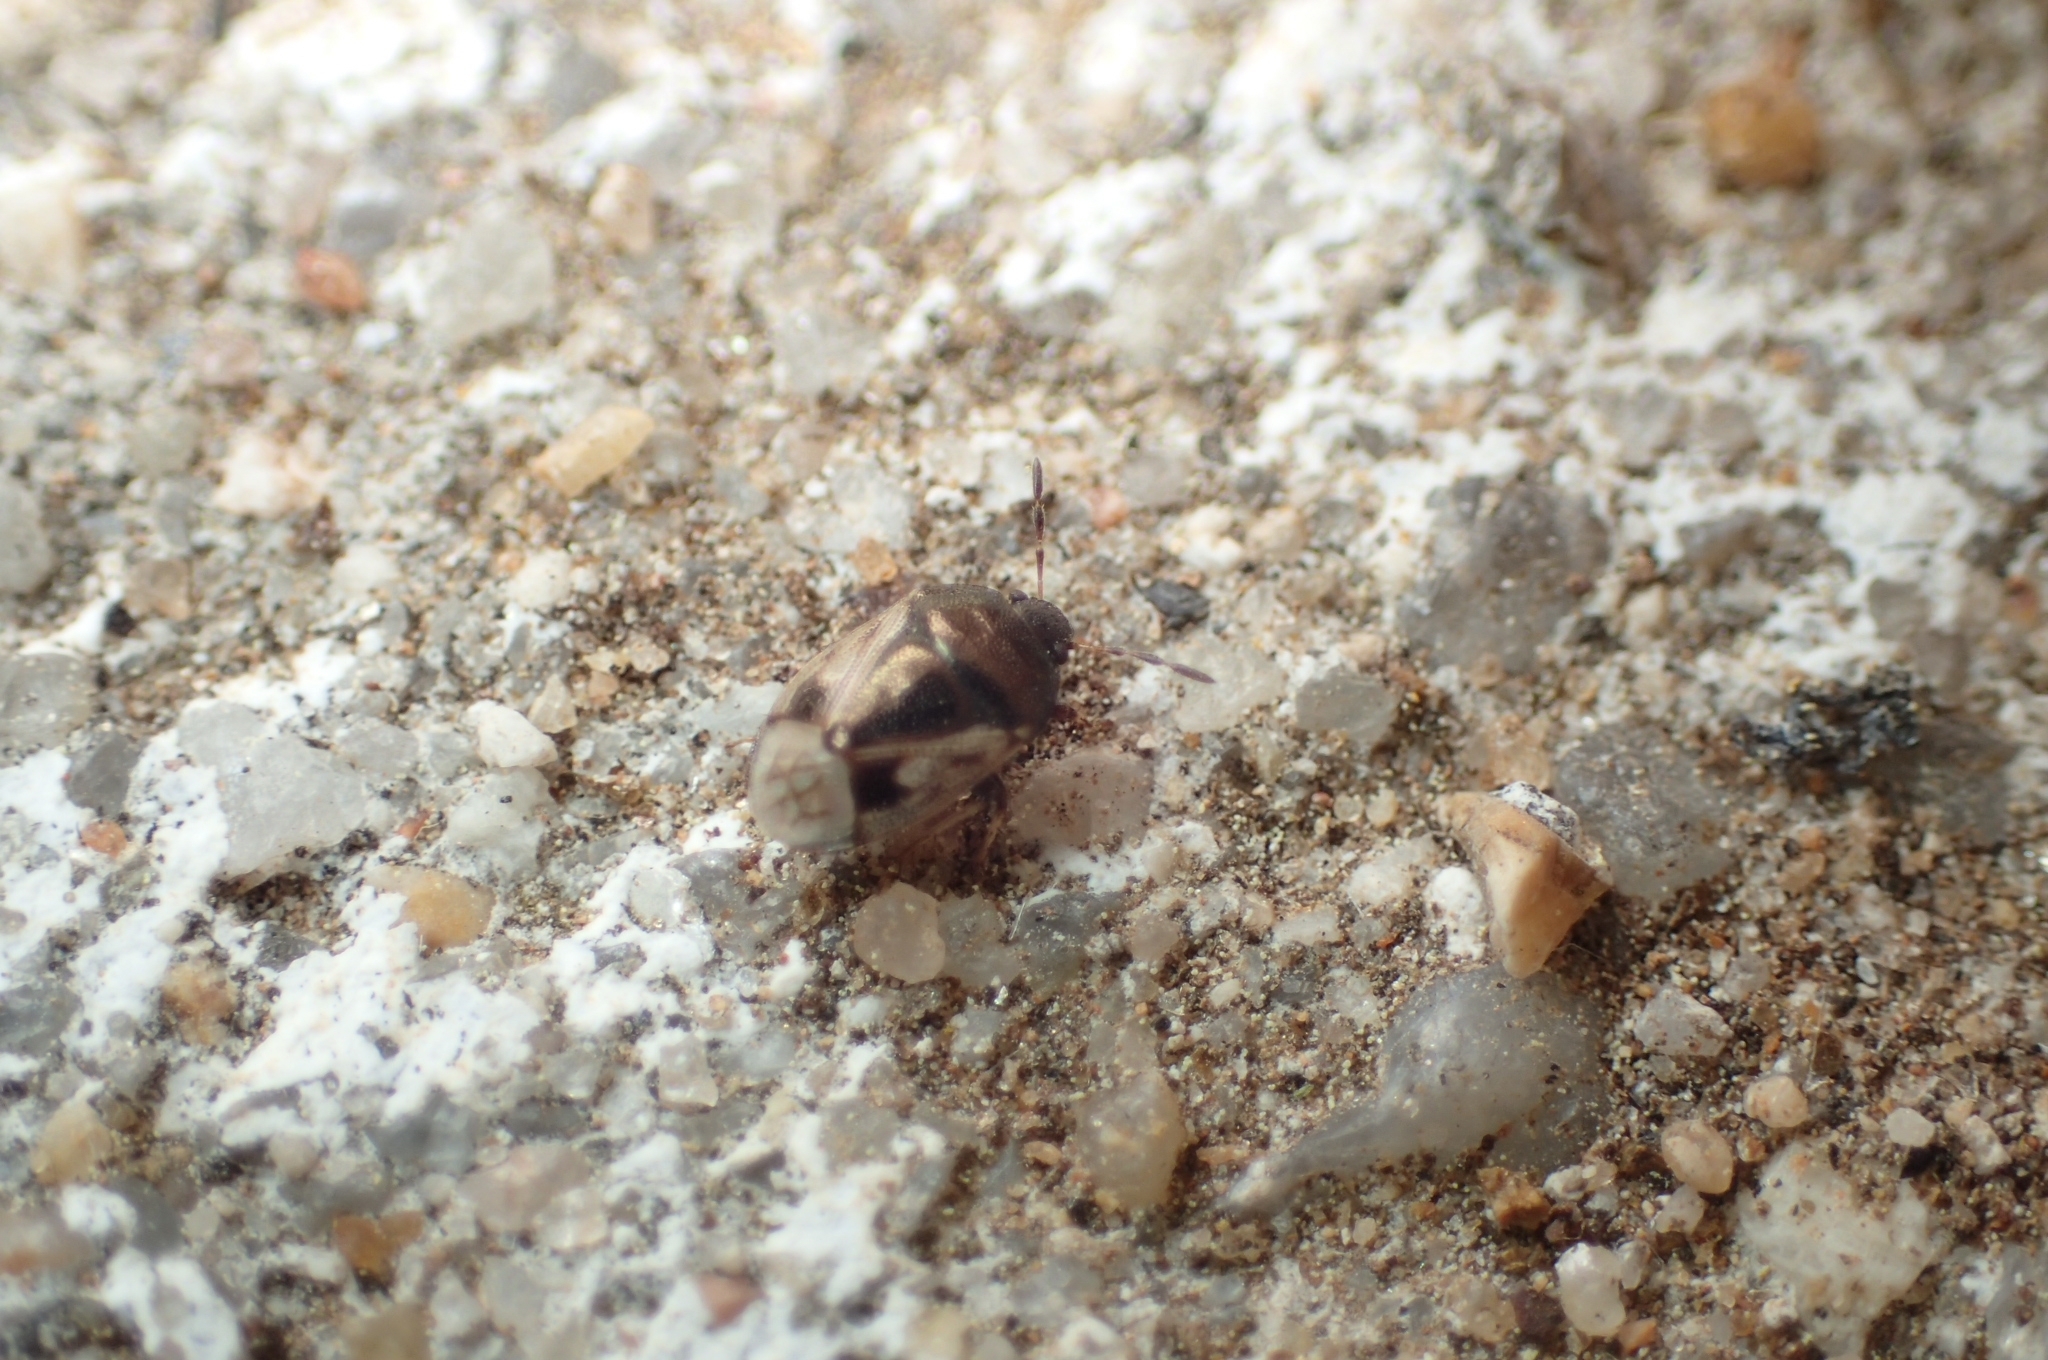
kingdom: Animalia
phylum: Arthropoda
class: Insecta
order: Hemiptera
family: Cydnidae
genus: Crocistethus
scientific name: Crocistethus waltlianus
